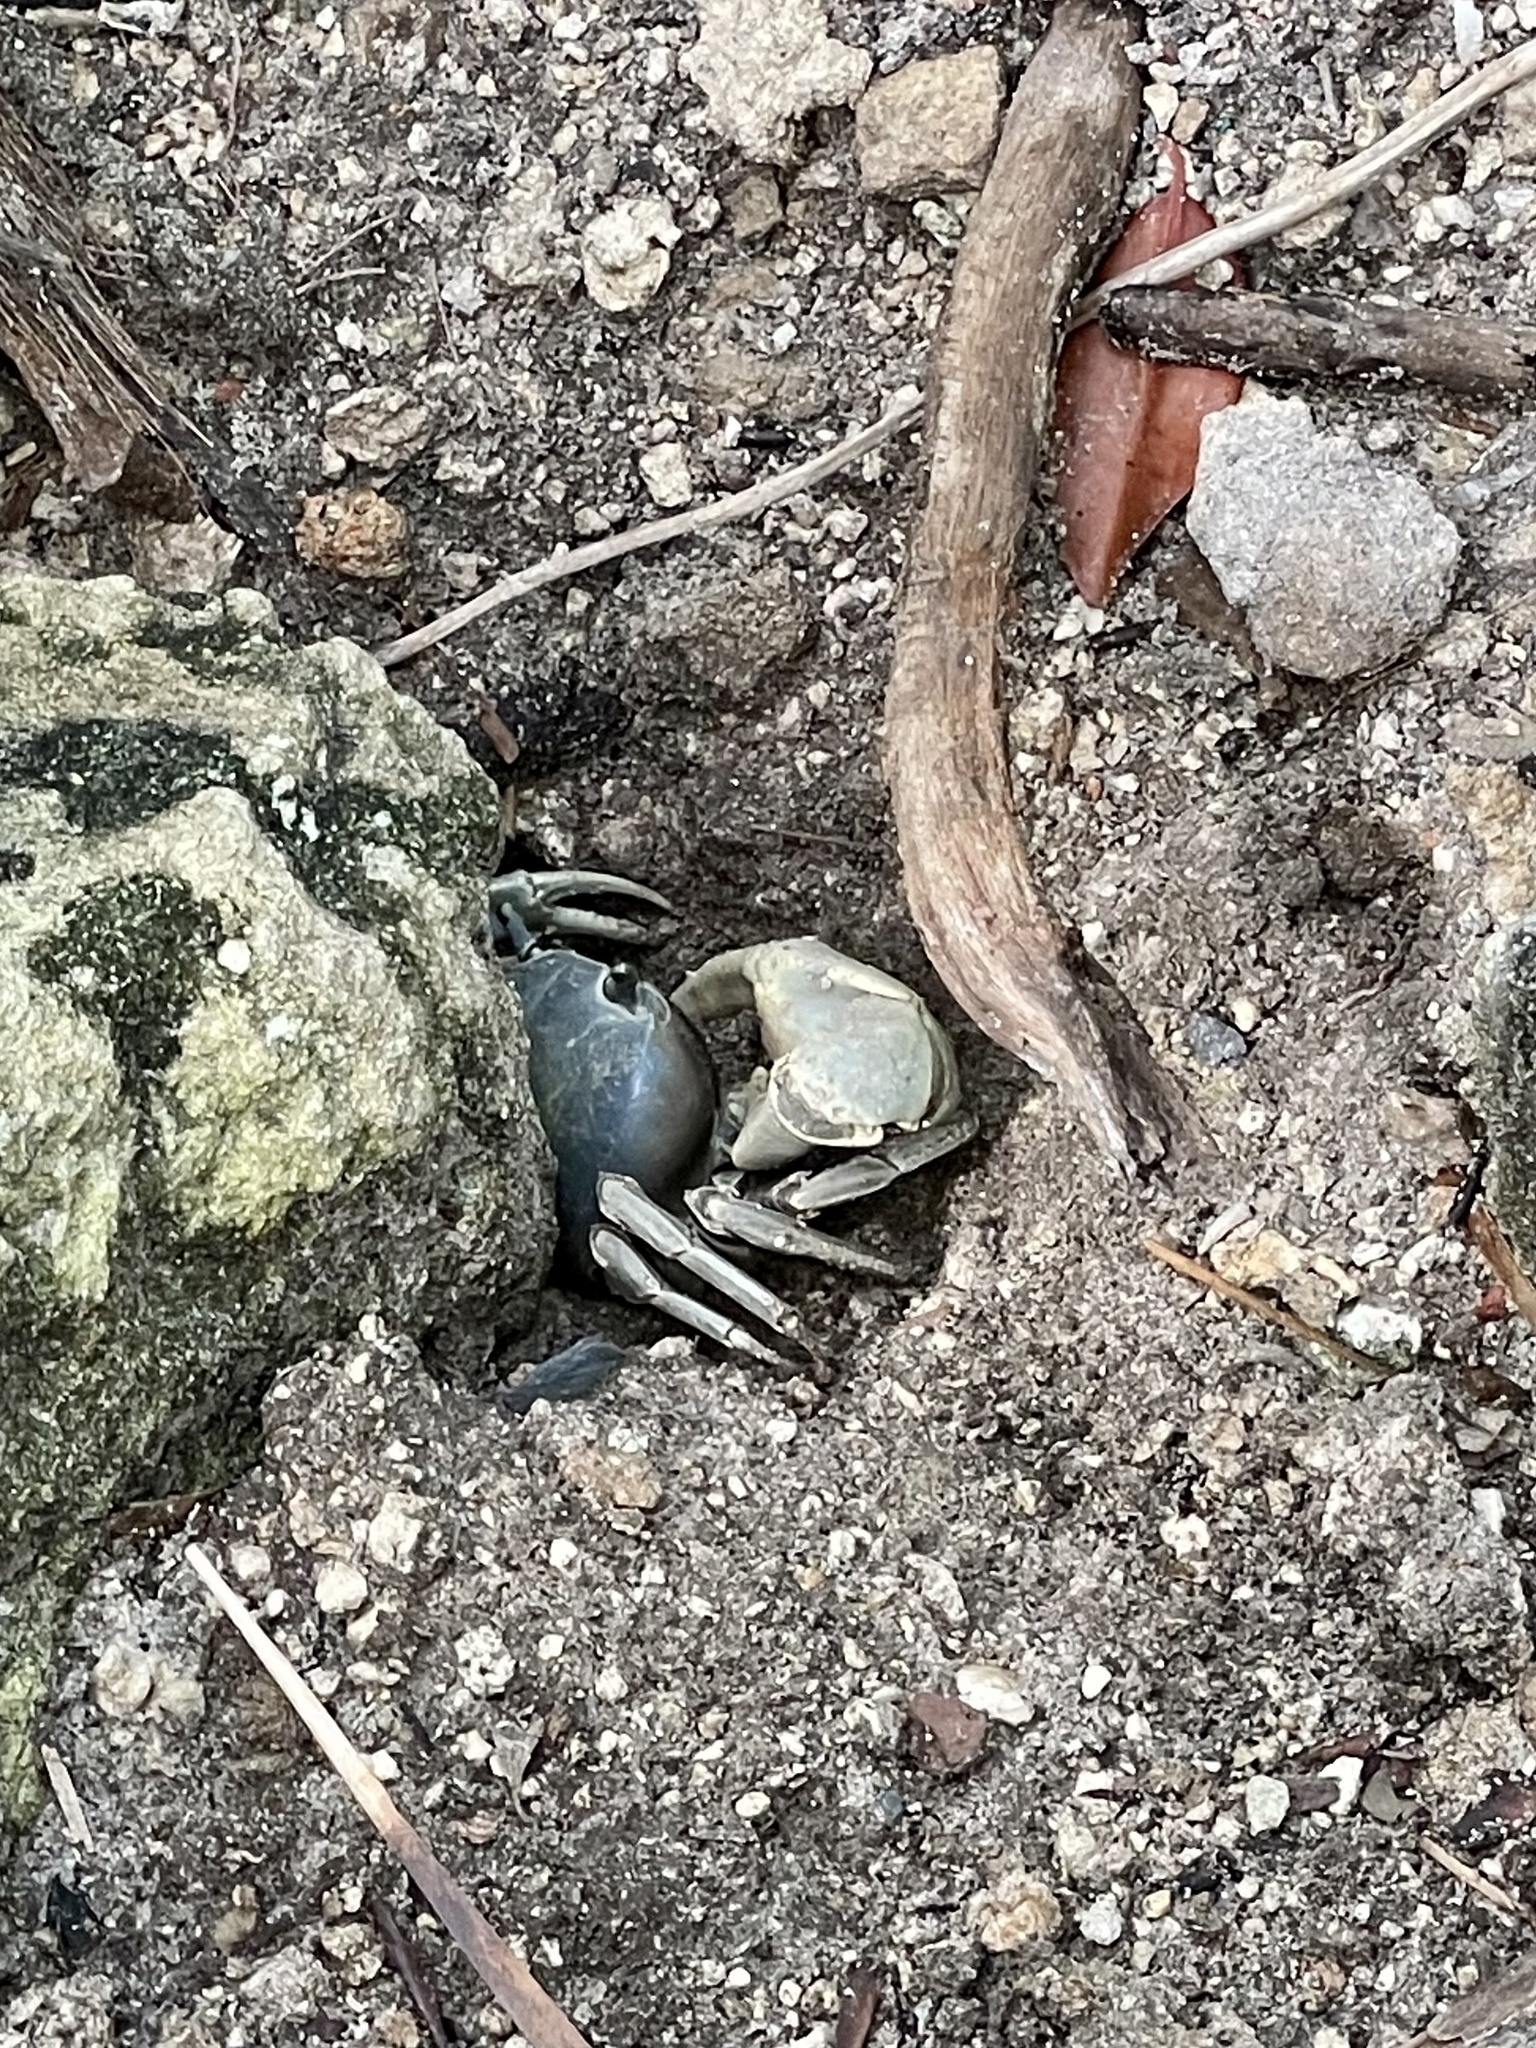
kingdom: Animalia
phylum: Arthropoda
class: Malacostraca
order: Decapoda
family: Gecarcinidae
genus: Cardisoma
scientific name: Cardisoma guanhumi
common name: Great land crab
